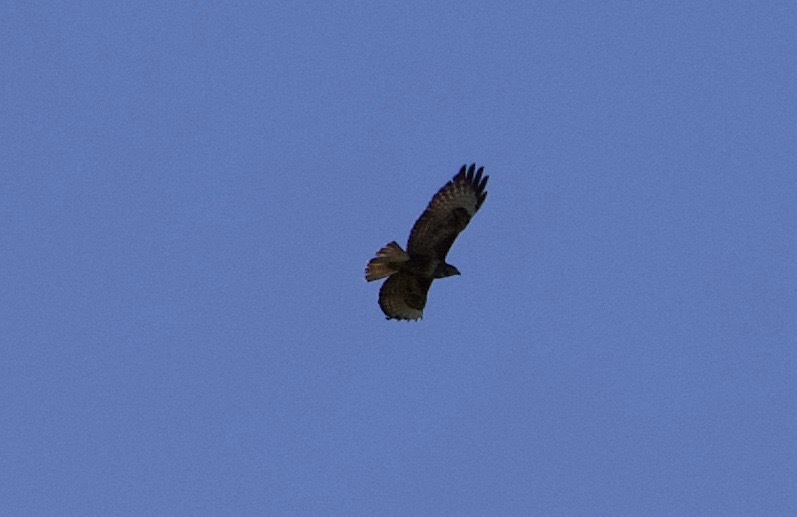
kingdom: Animalia
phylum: Chordata
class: Aves
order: Accipitriformes
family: Accipitridae
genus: Buteo
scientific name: Buteo buteo
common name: Common buzzard
